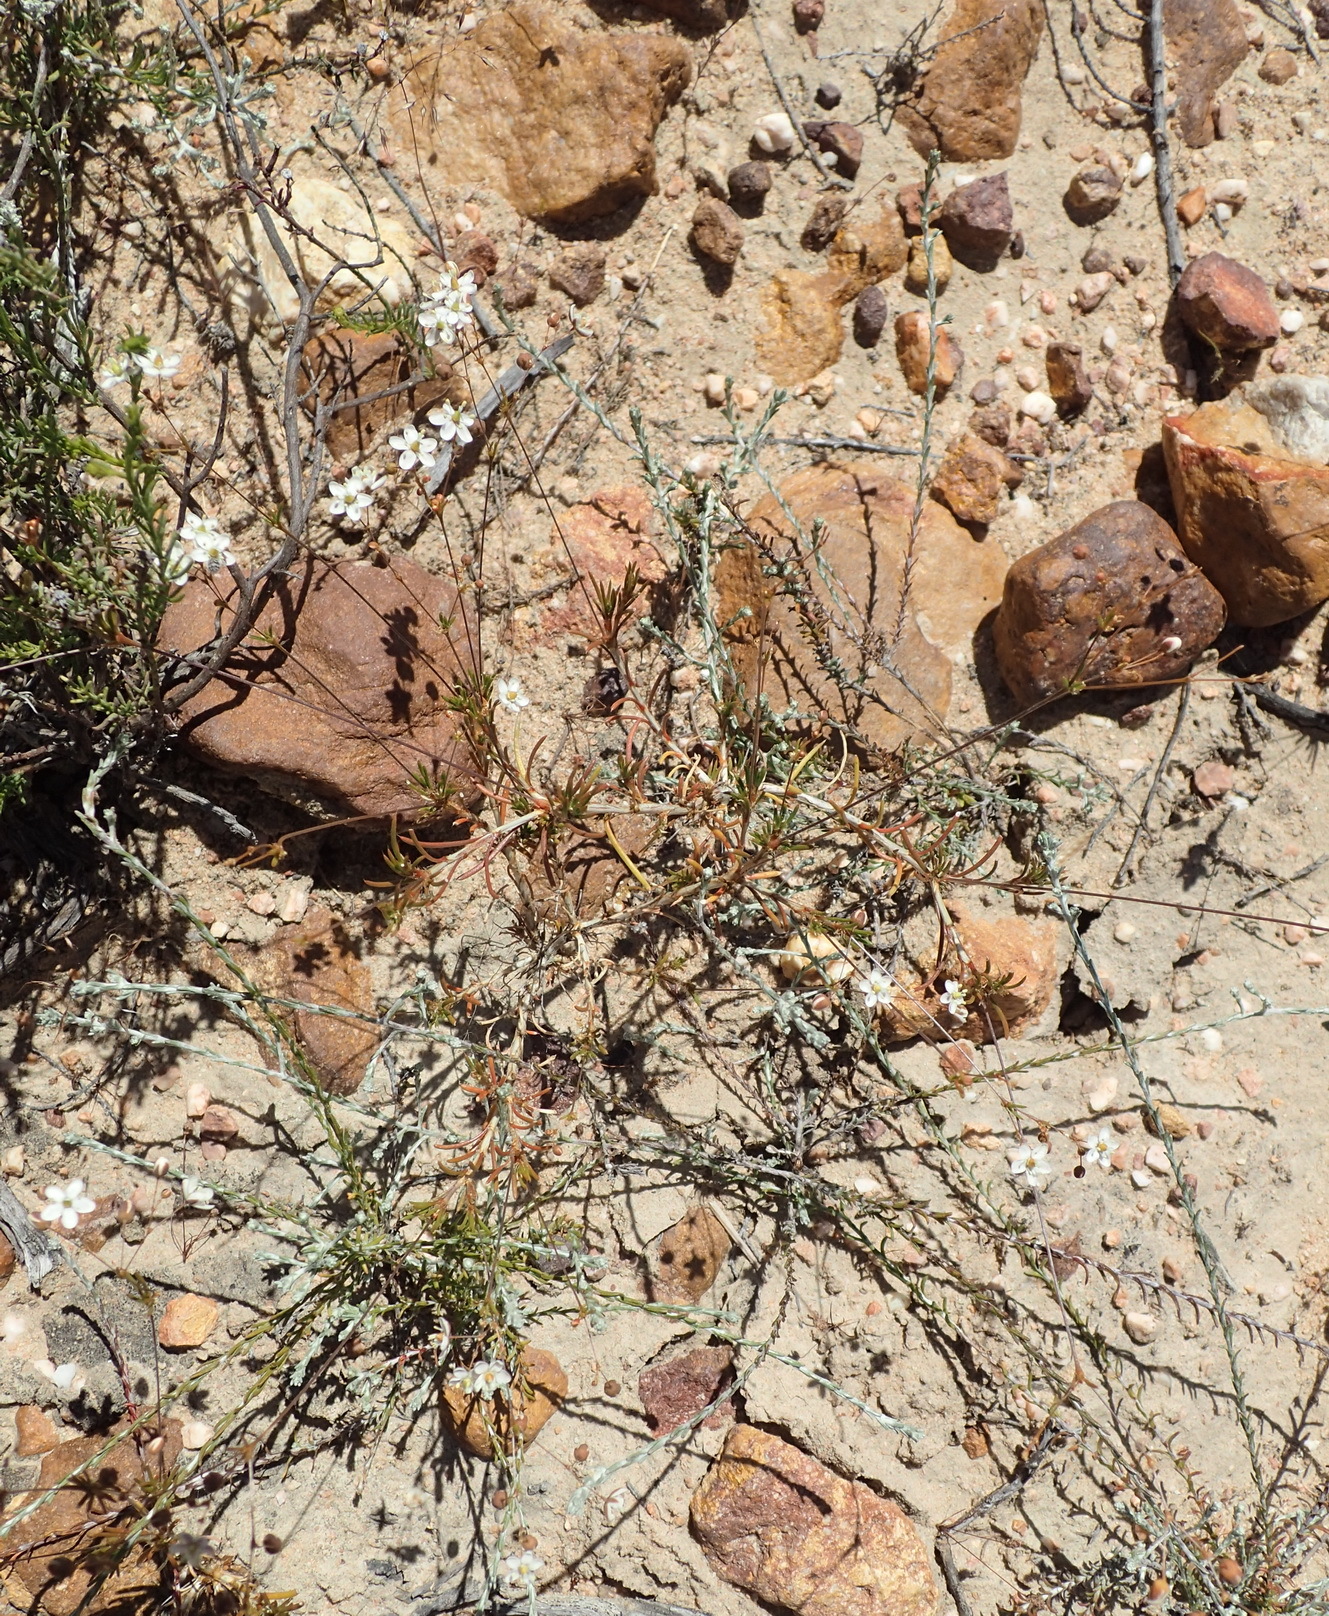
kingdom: Plantae
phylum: Tracheophyta
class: Magnoliopsida
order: Caryophyllales
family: Molluginaceae
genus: Pharnaceum
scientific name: Pharnaceum aurantium
